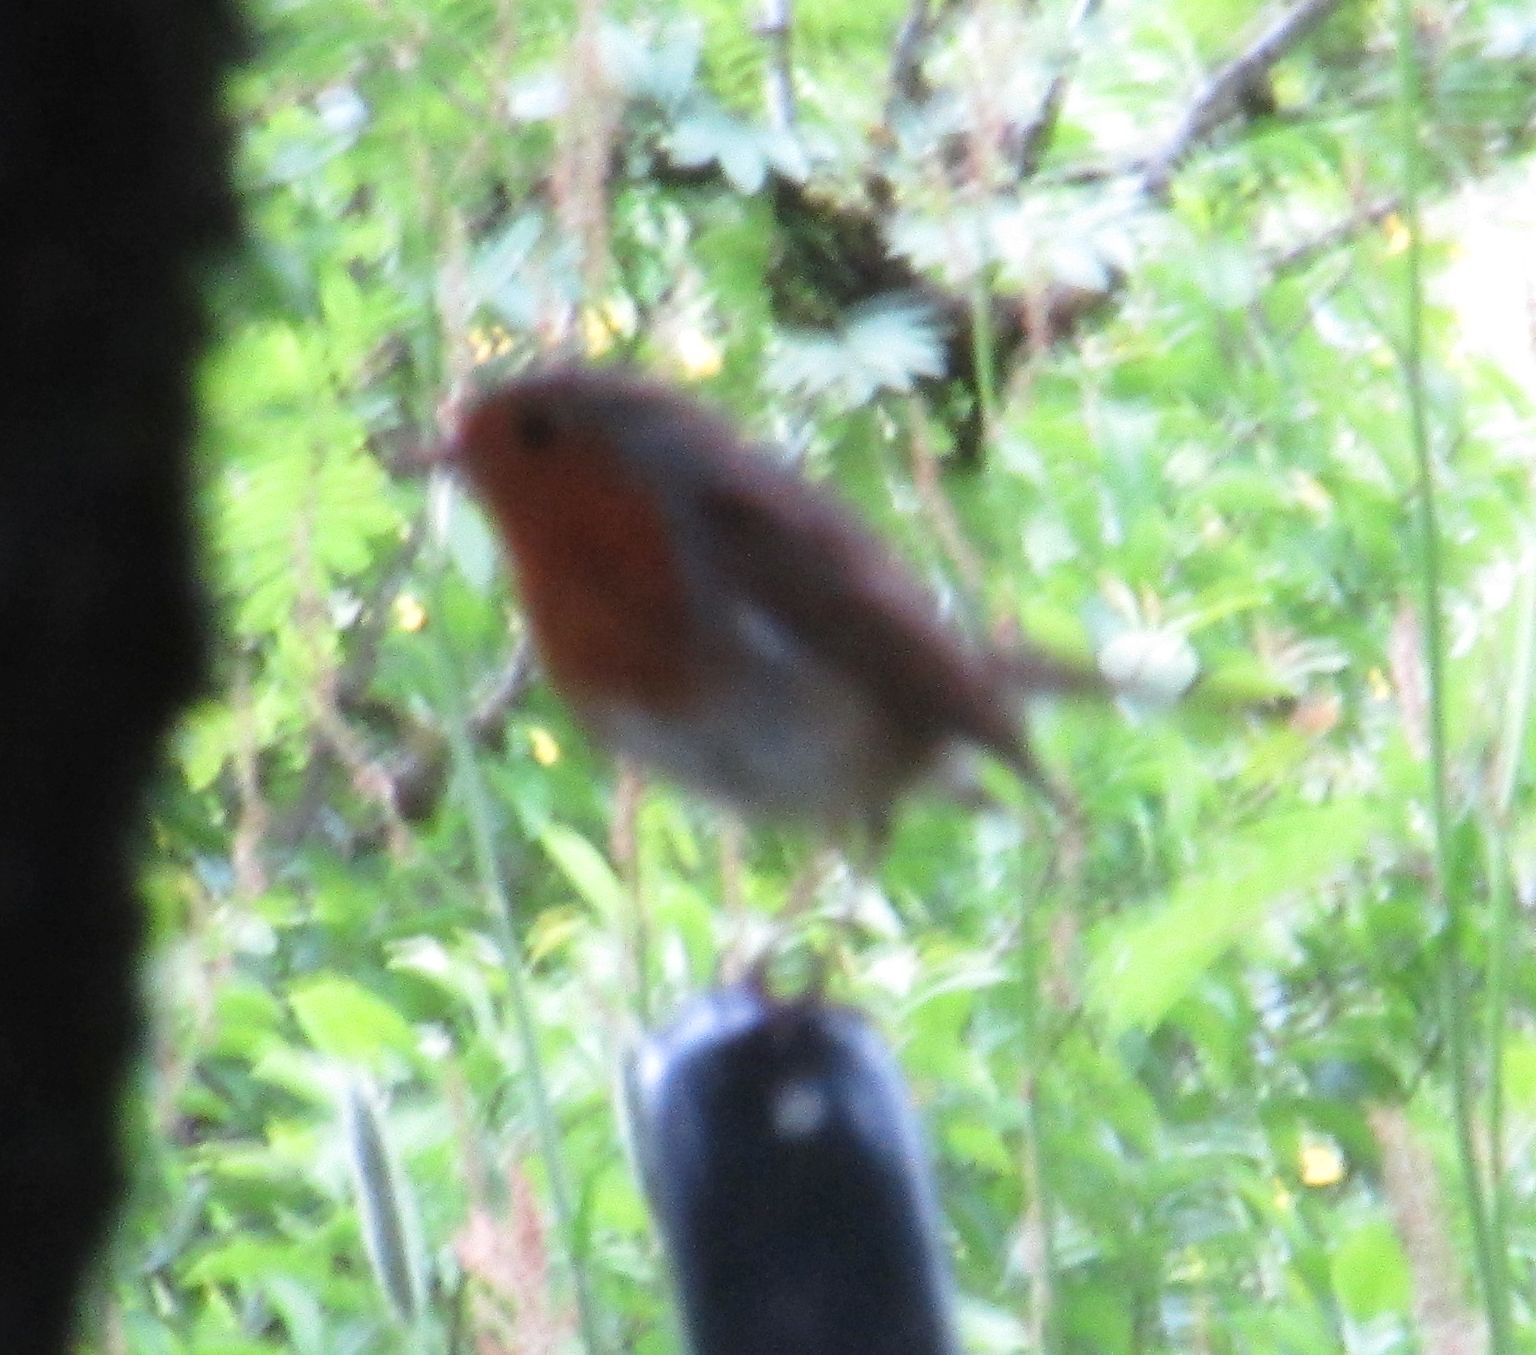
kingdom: Animalia
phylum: Chordata
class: Aves
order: Passeriformes
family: Muscicapidae
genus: Erithacus
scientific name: Erithacus rubecula
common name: European robin
